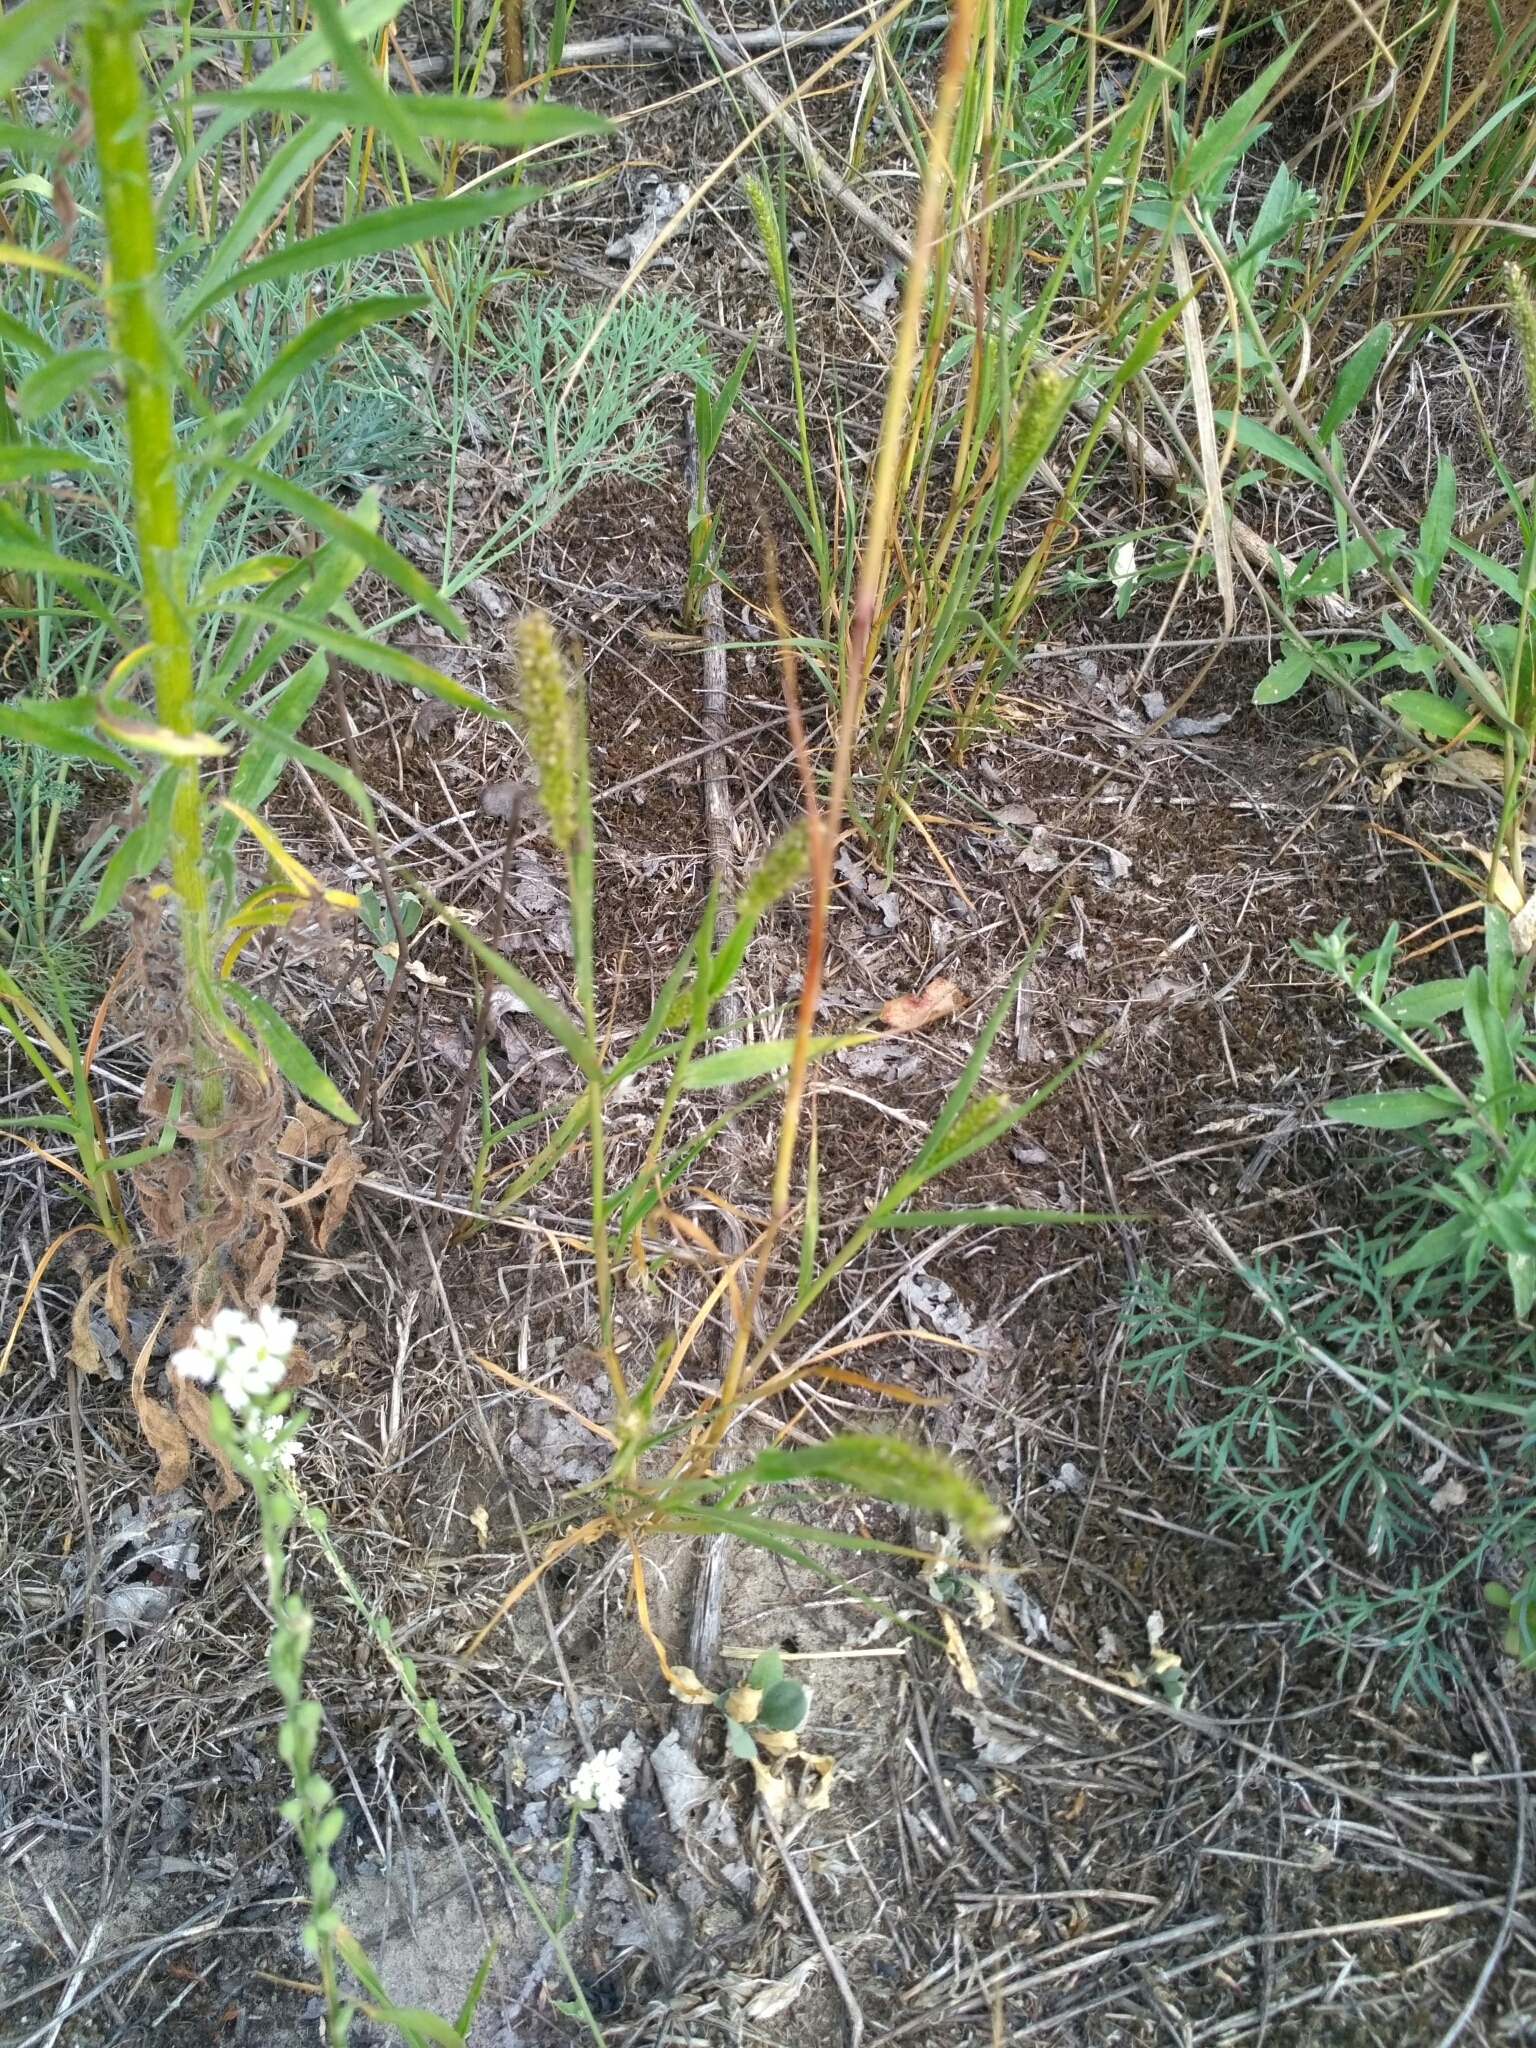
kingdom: Plantae
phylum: Tracheophyta
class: Liliopsida
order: Poales
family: Poaceae
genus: Setaria
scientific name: Setaria viridis
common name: Green bristlegrass
